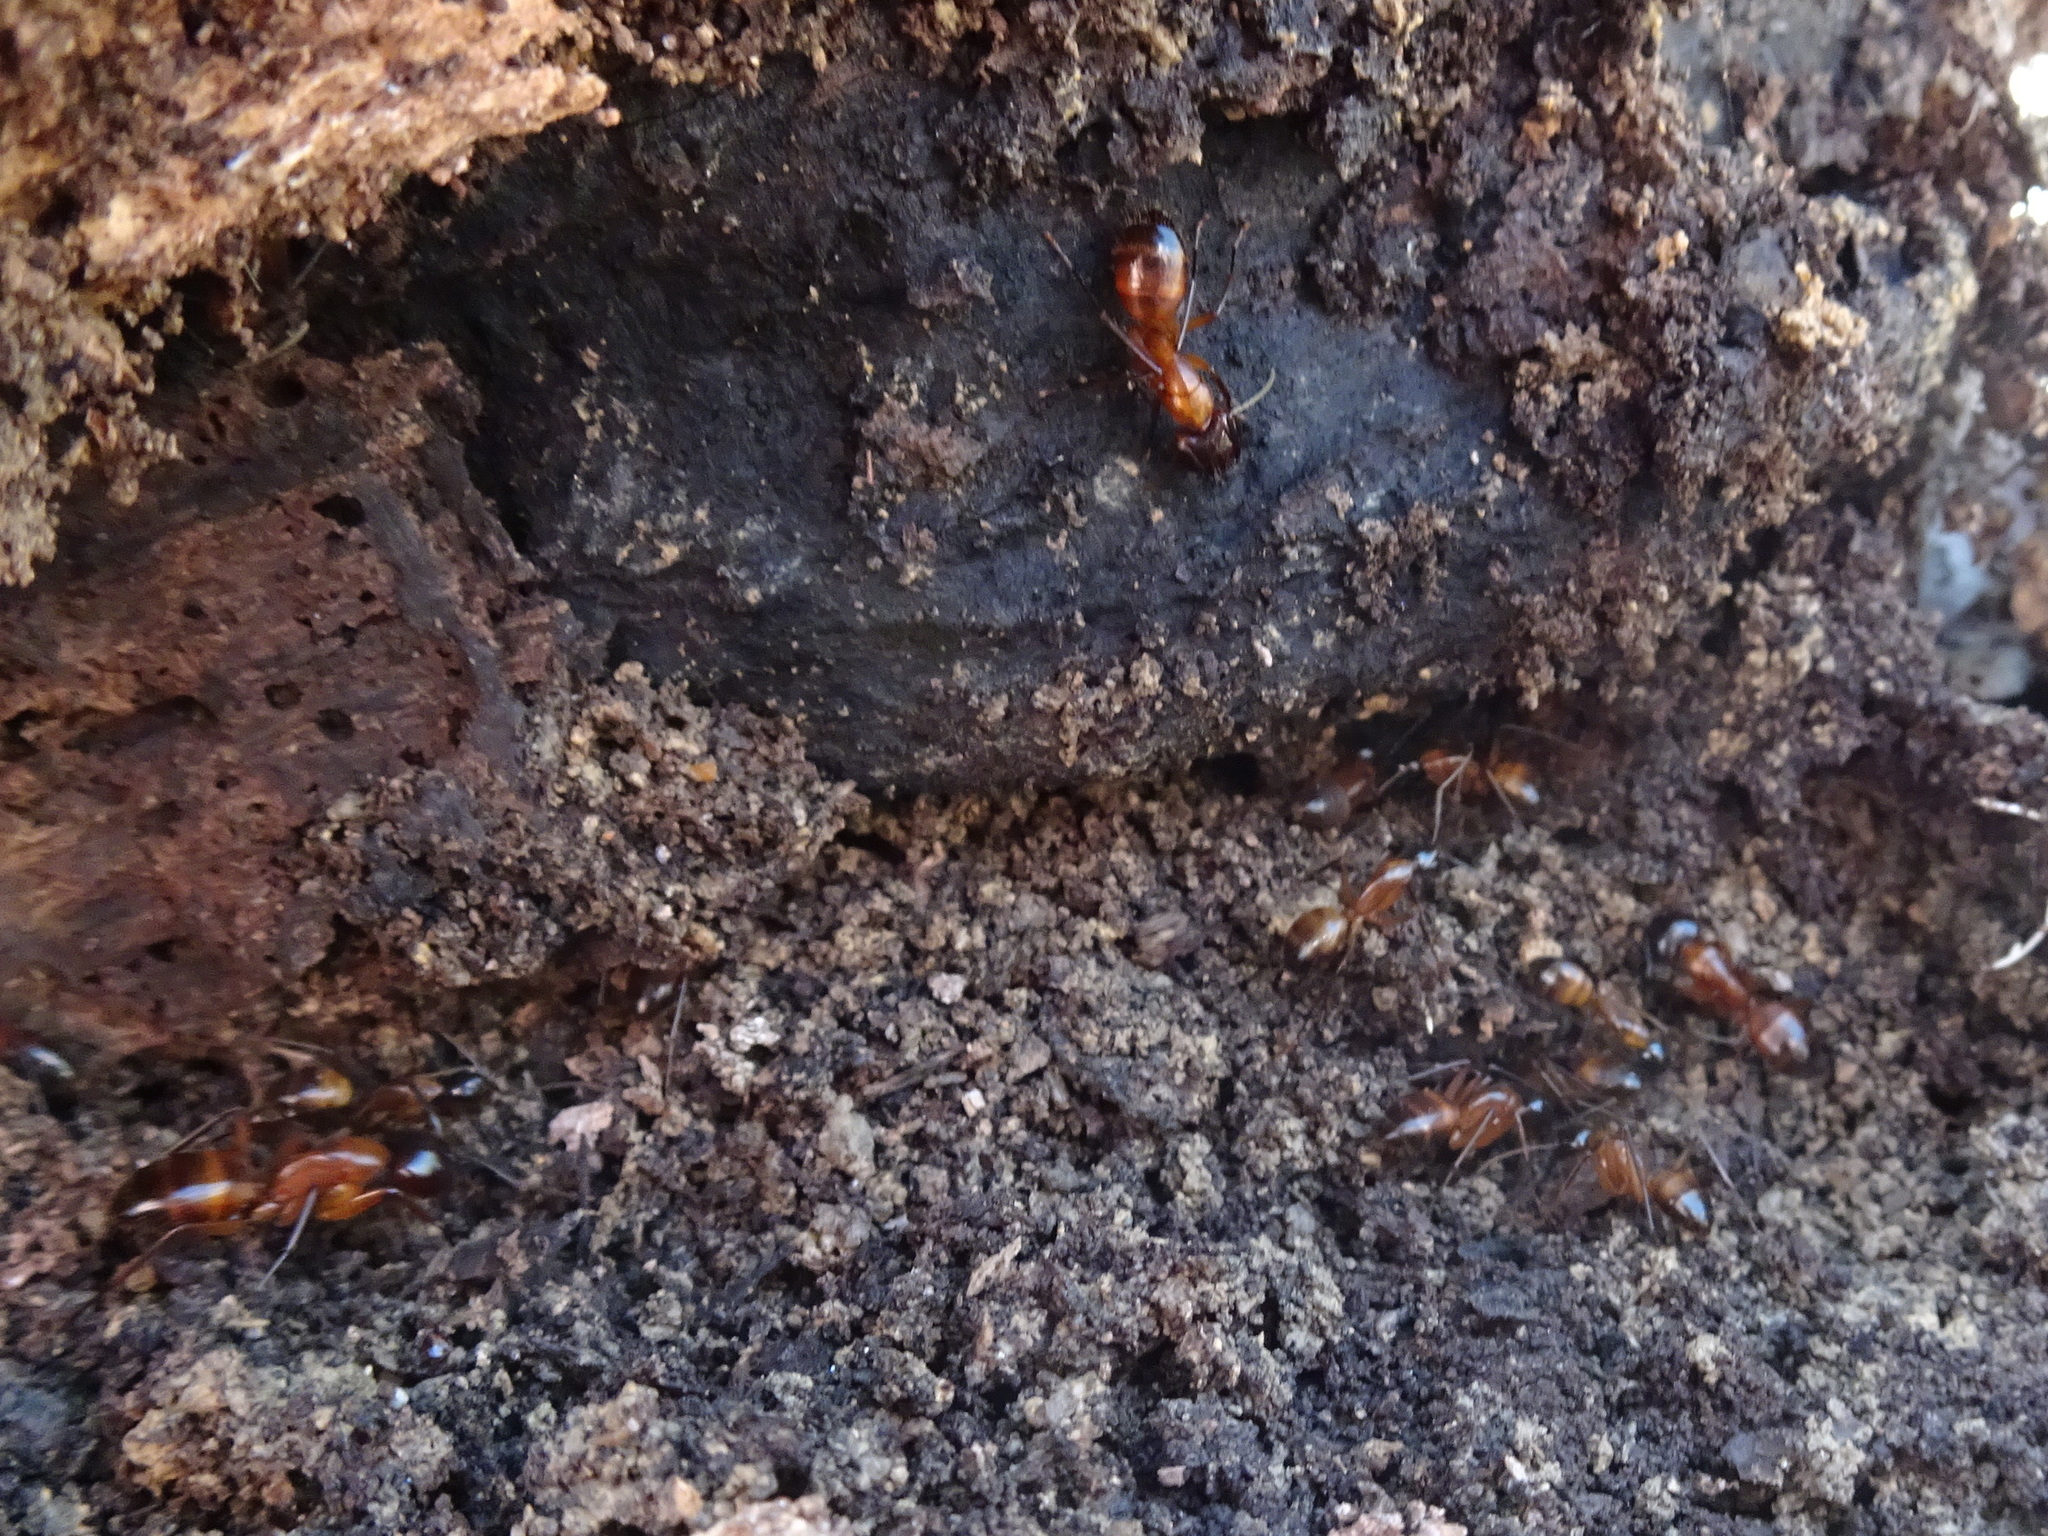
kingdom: Animalia
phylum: Arthropoda
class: Insecta
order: Hymenoptera
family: Formicidae
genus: Camponotus
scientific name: Camponotus americanus
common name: American carpenter ant
